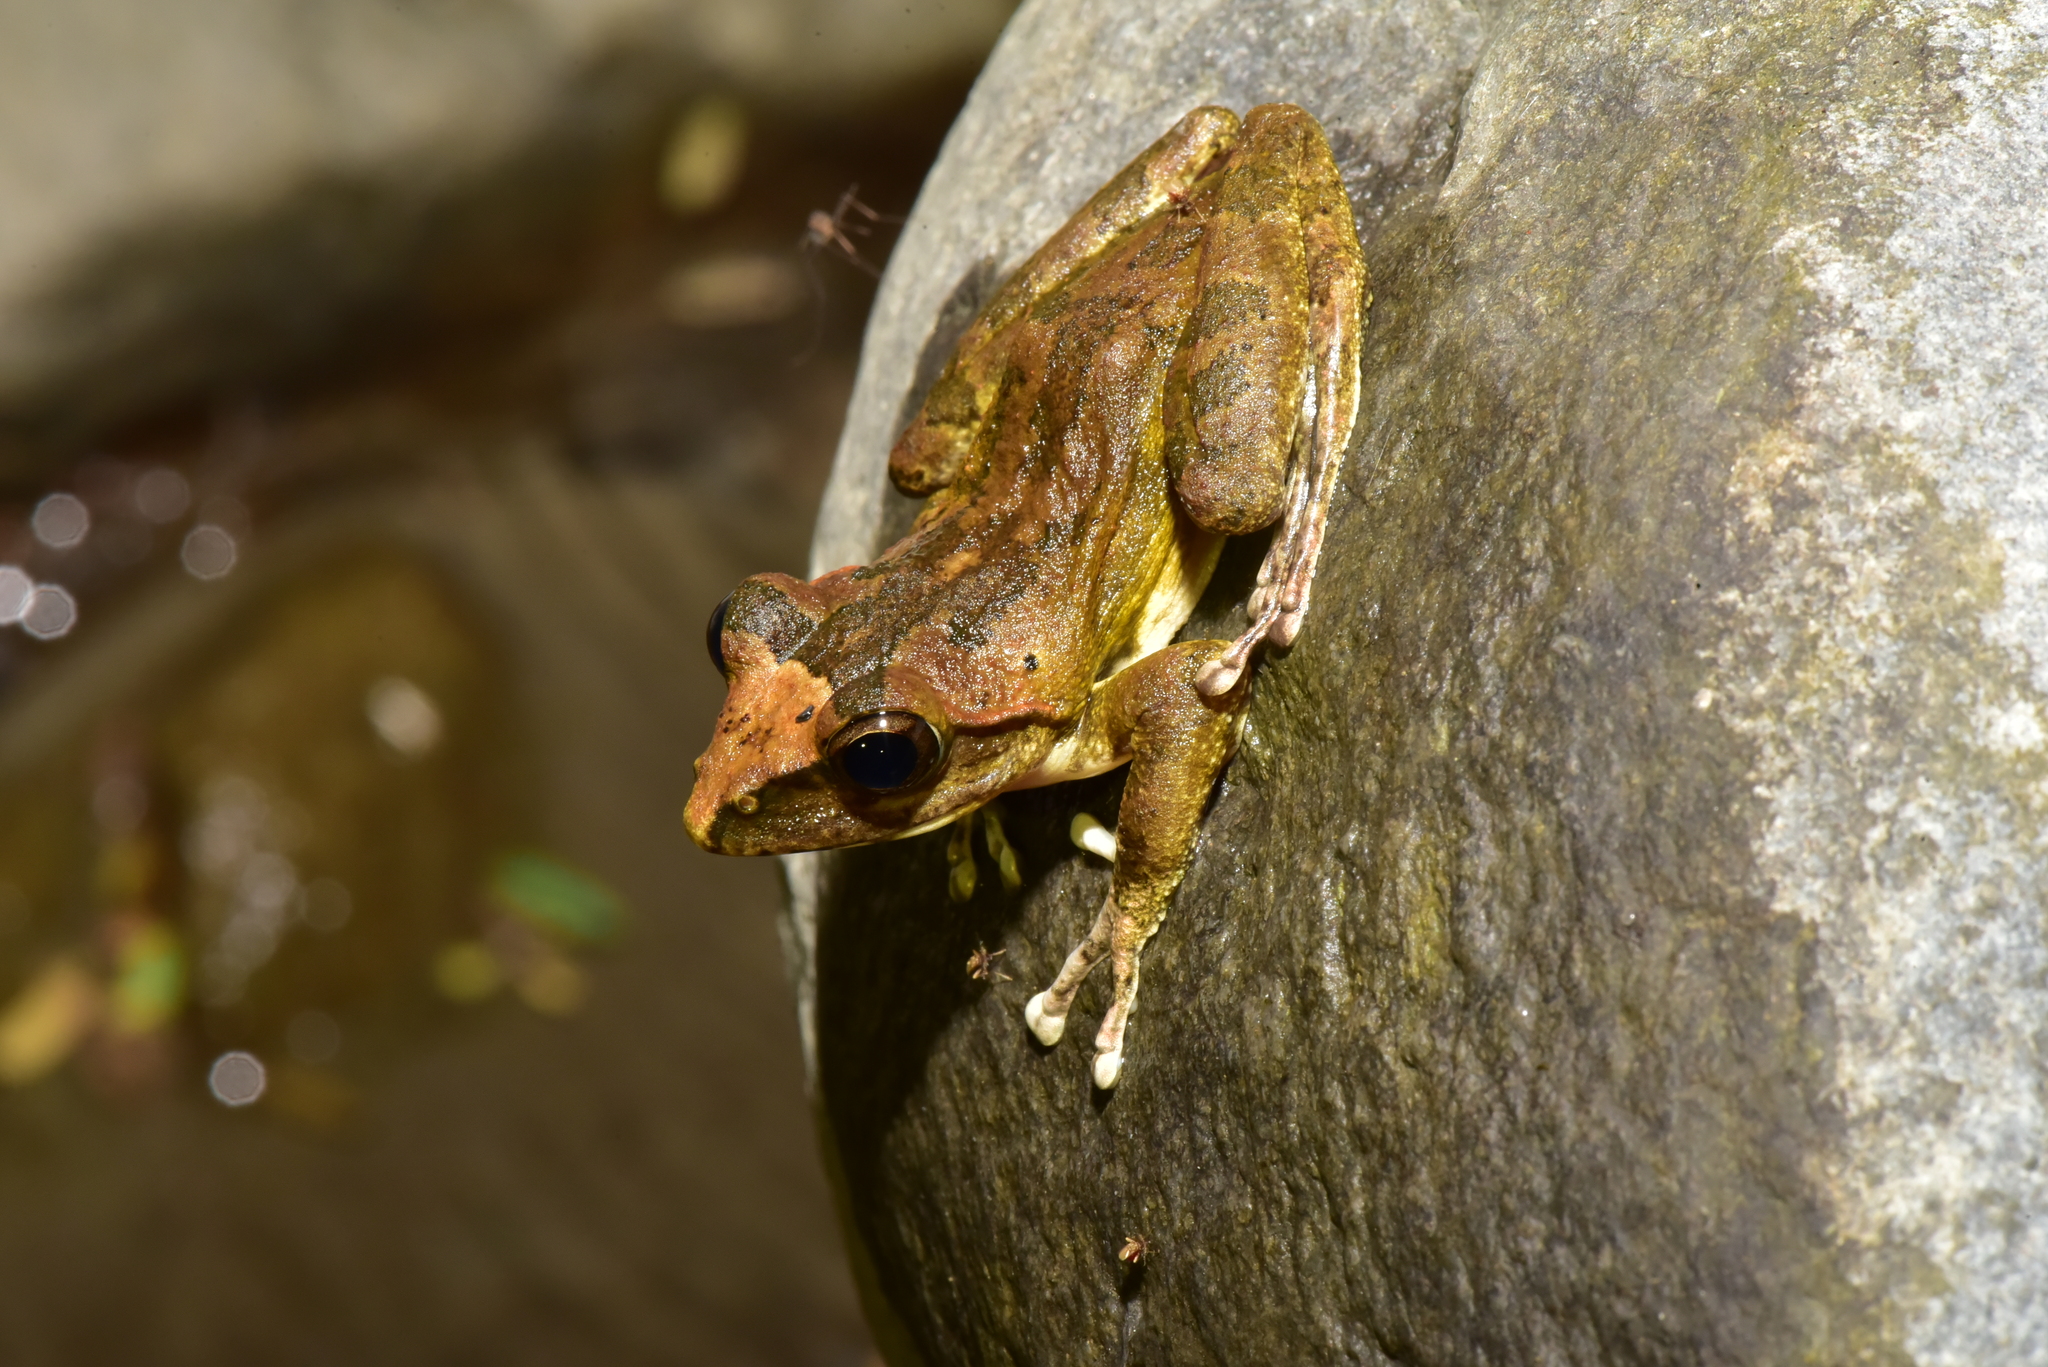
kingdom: Animalia
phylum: Chordata
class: Amphibia
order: Anura
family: Rhacophoridae
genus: Buergeria
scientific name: Buergeria robusta
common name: Brown treefrog
